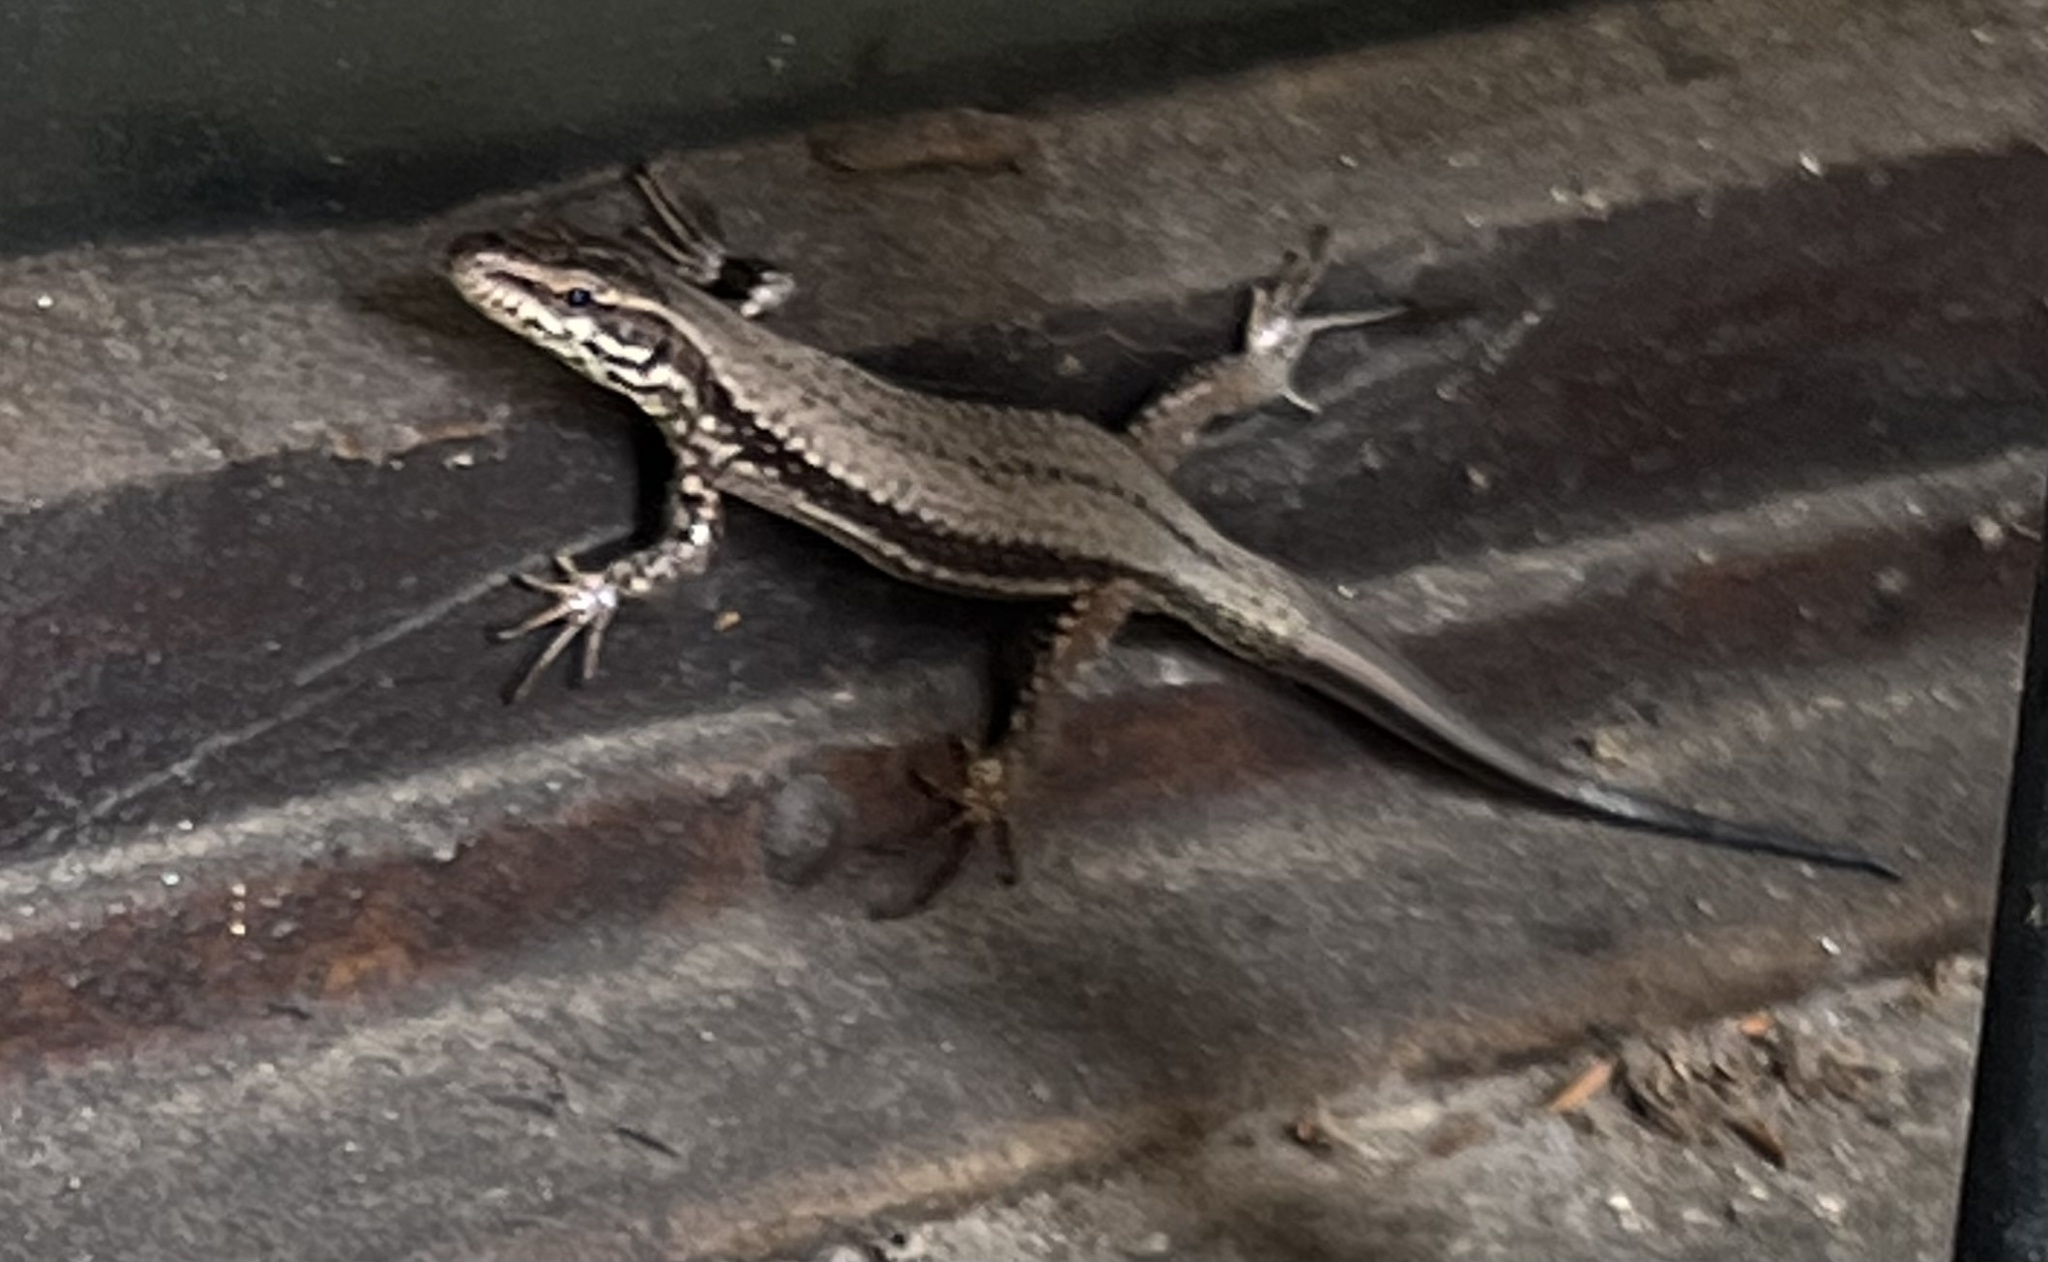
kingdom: Animalia
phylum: Chordata
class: Squamata
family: Lacertidae
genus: Podarcis
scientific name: Podarcis muralis
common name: Common wall lizard
